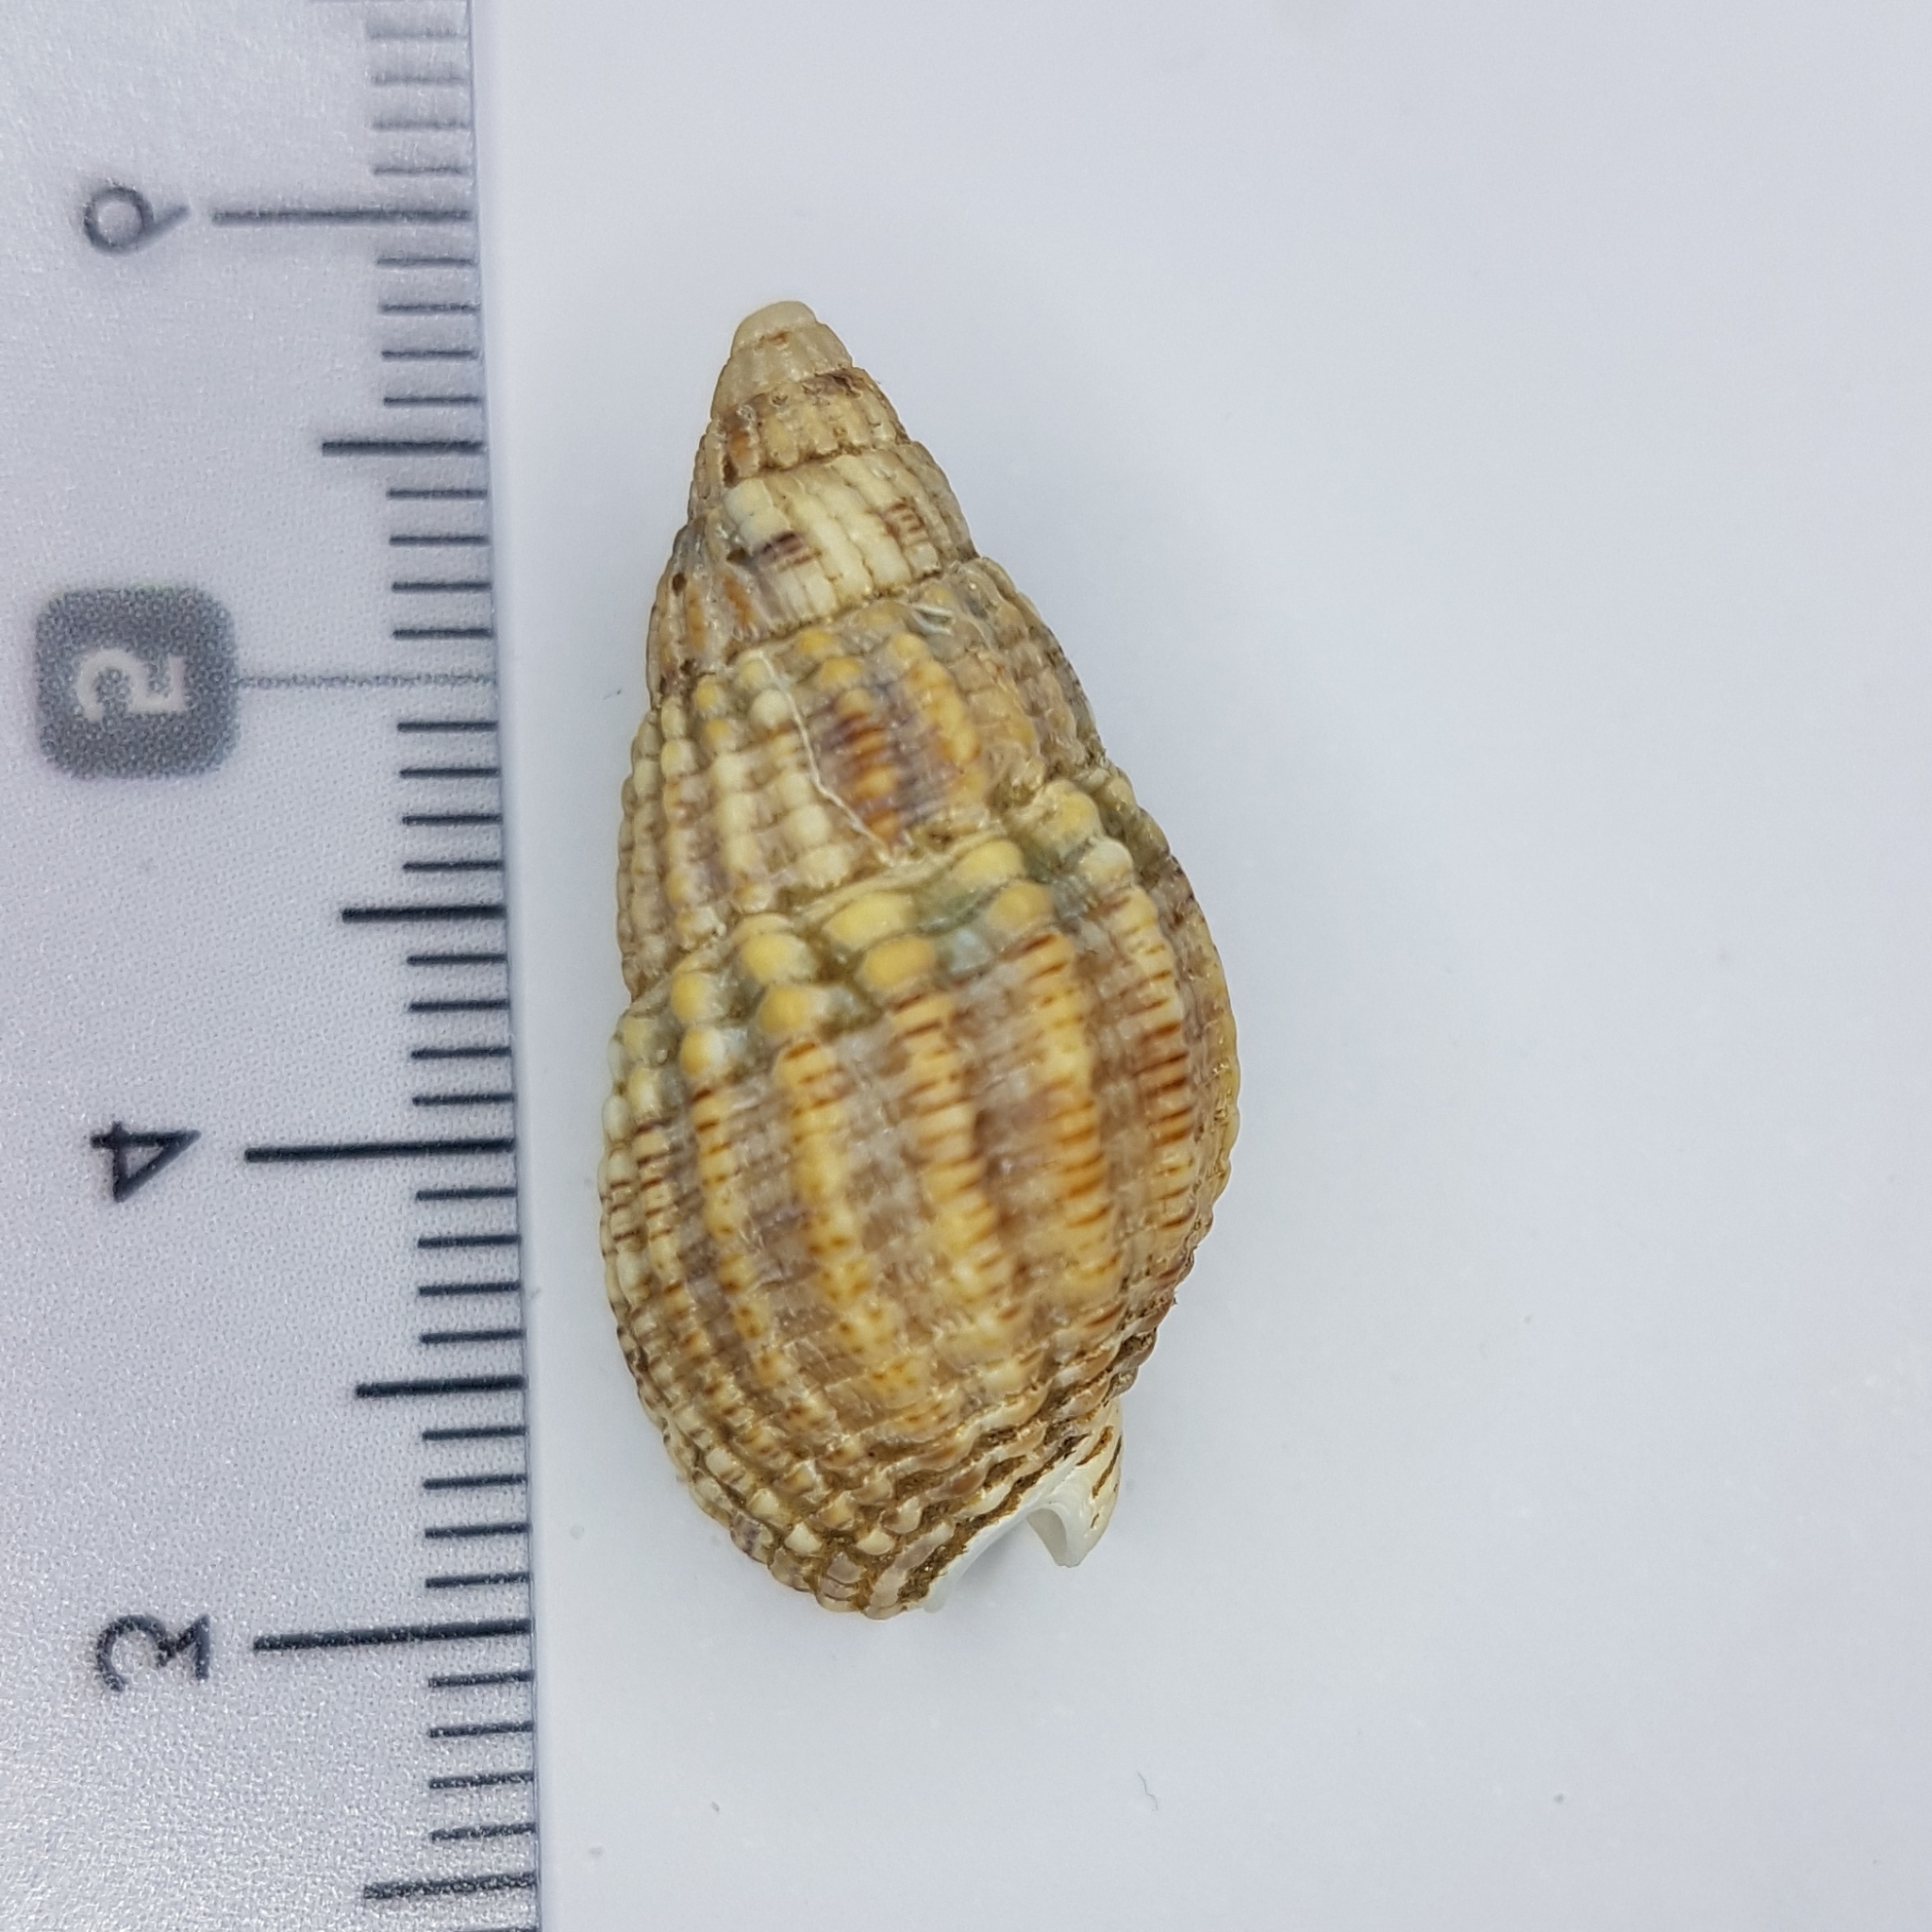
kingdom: Animalia
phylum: Mollusca
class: Gastropoda
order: Neogastropoda
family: Nassariidae
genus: Tritia
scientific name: Tritia reticulata
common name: Netted dog whelk
